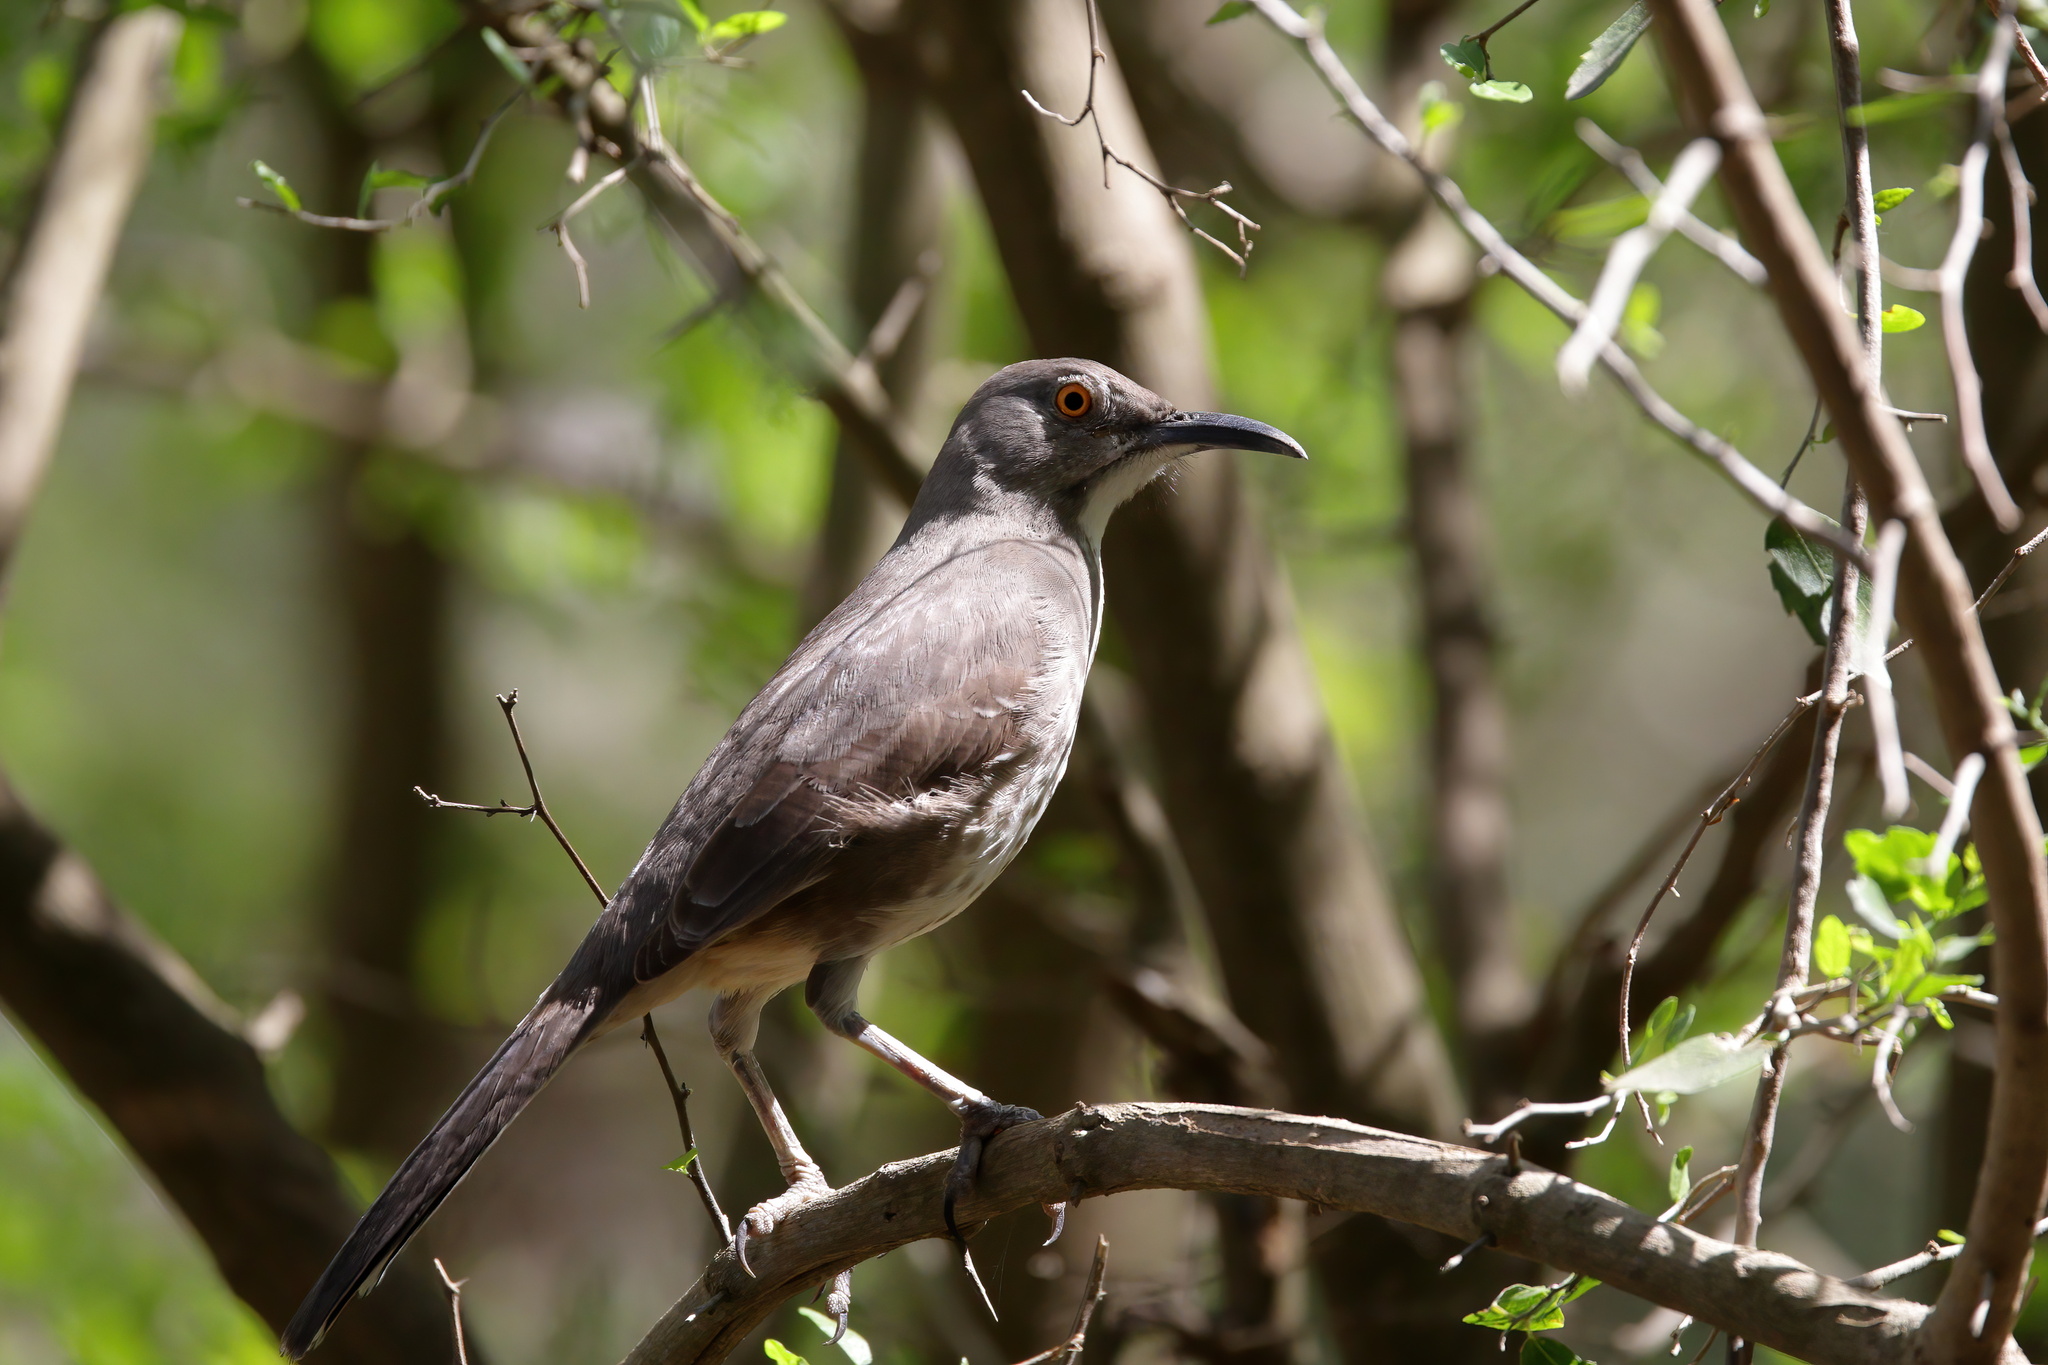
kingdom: Animalia
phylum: Chordata
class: Aves
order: Passeriformes
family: Mimidae
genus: Toxostoma
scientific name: Toxostoma curvirostre
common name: Curve-billed thrasher
